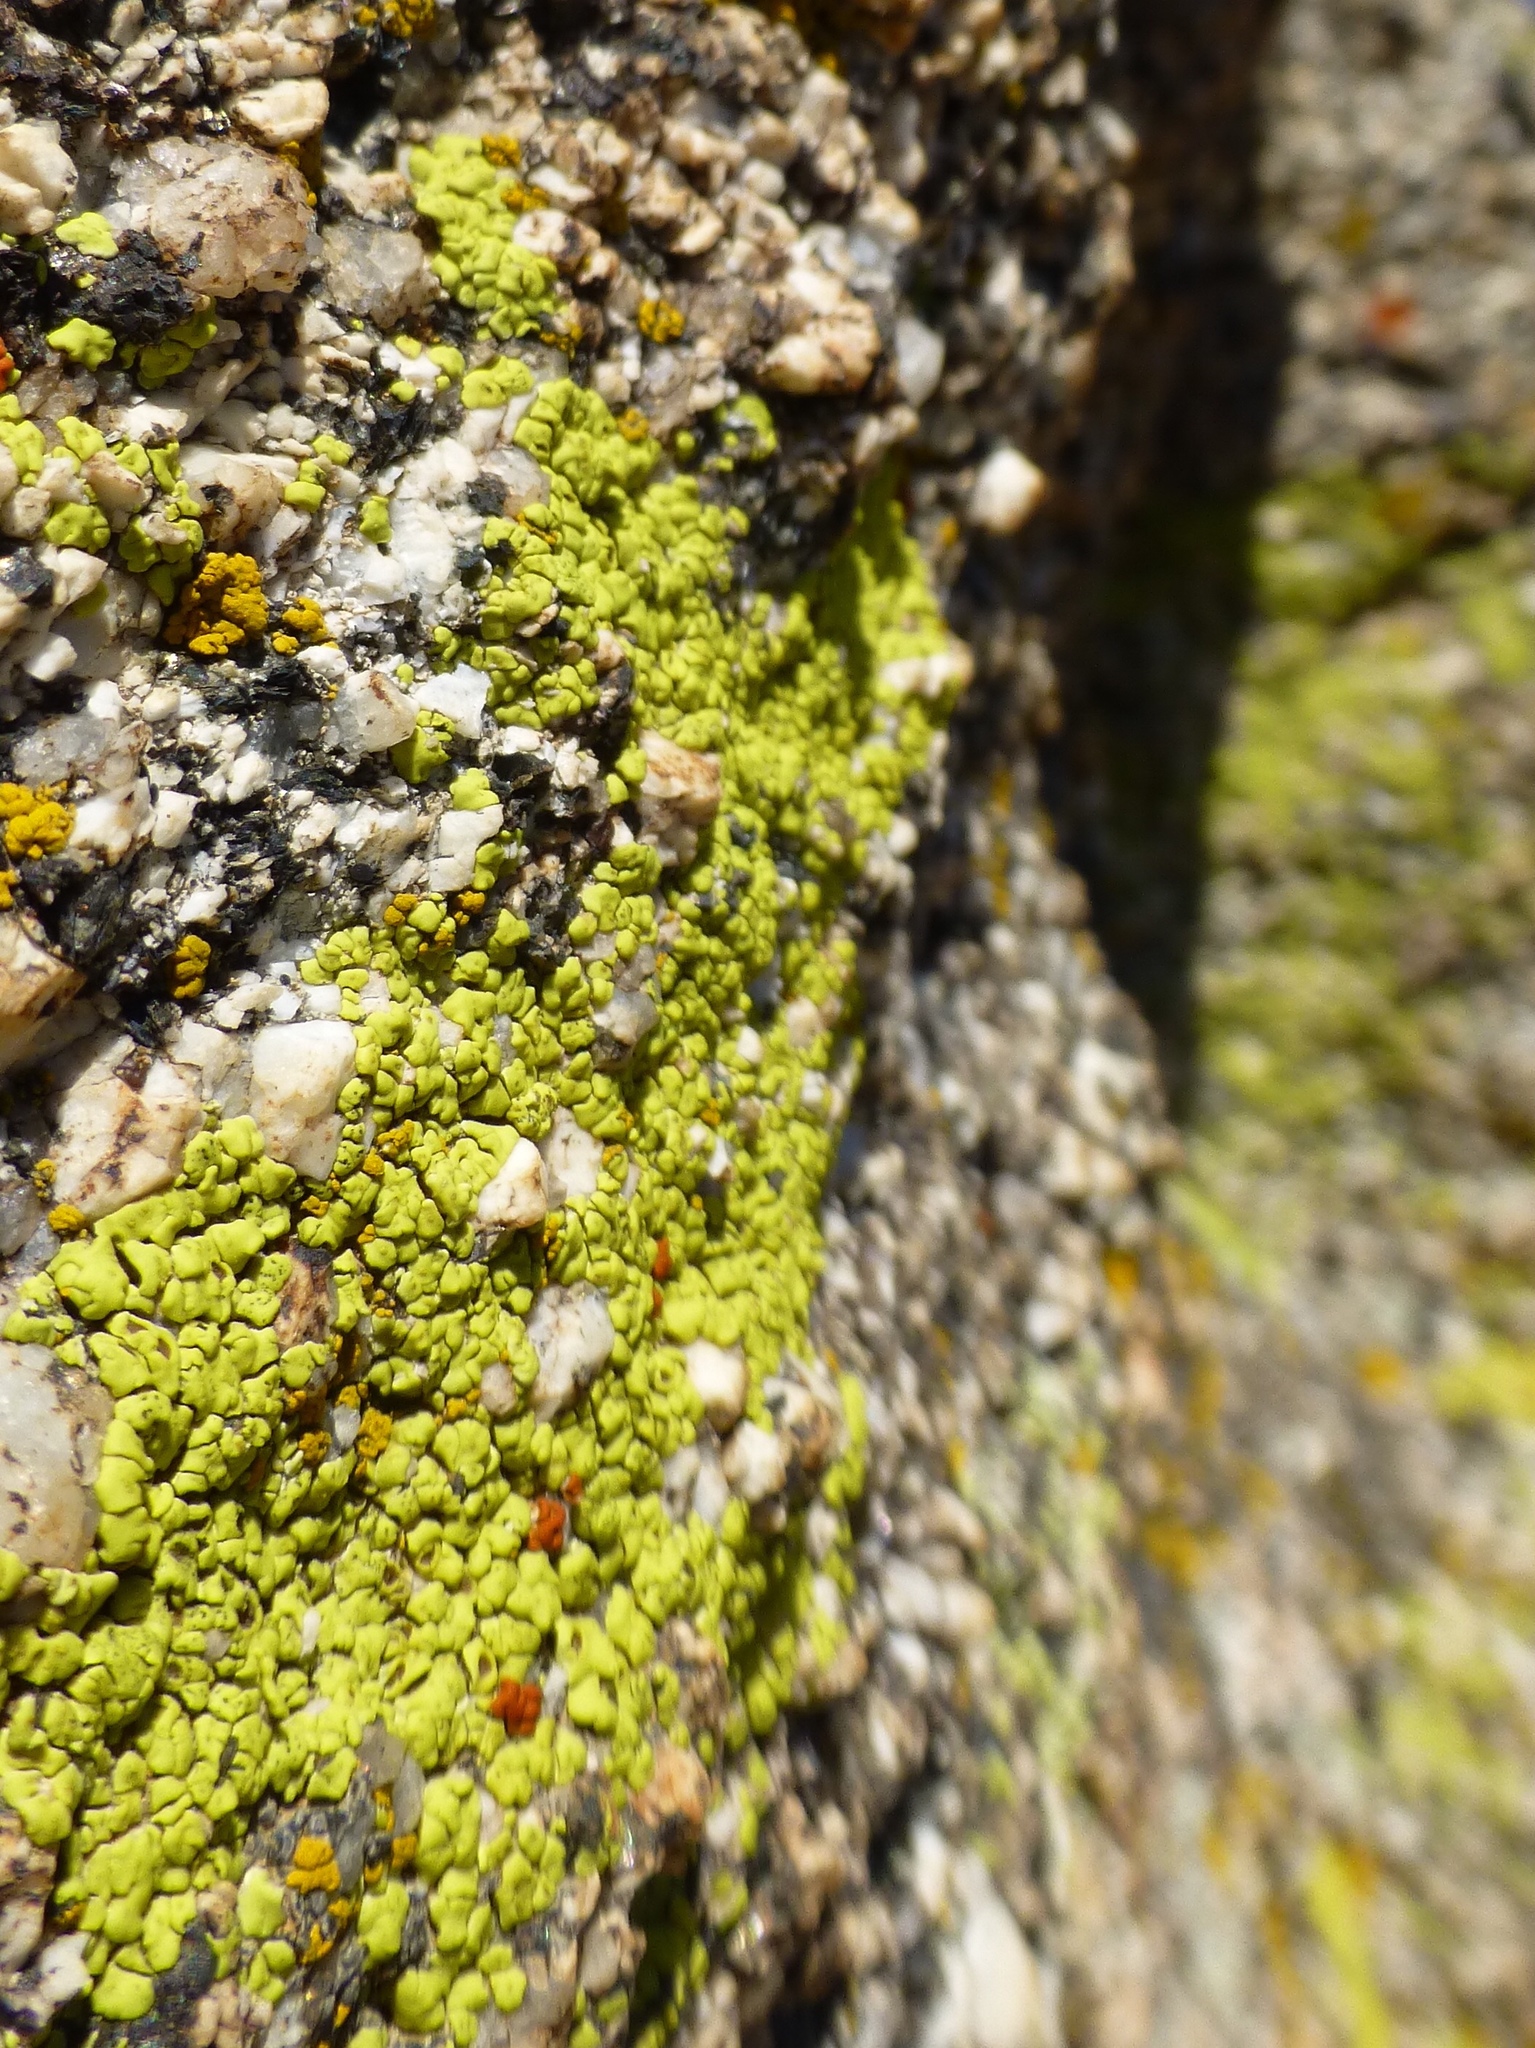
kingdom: Fungi
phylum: Ascomycota
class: Lecanoromycetes
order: Acarosporales
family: Acarosporaceae
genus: Acarospora
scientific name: Acarospora socialis
